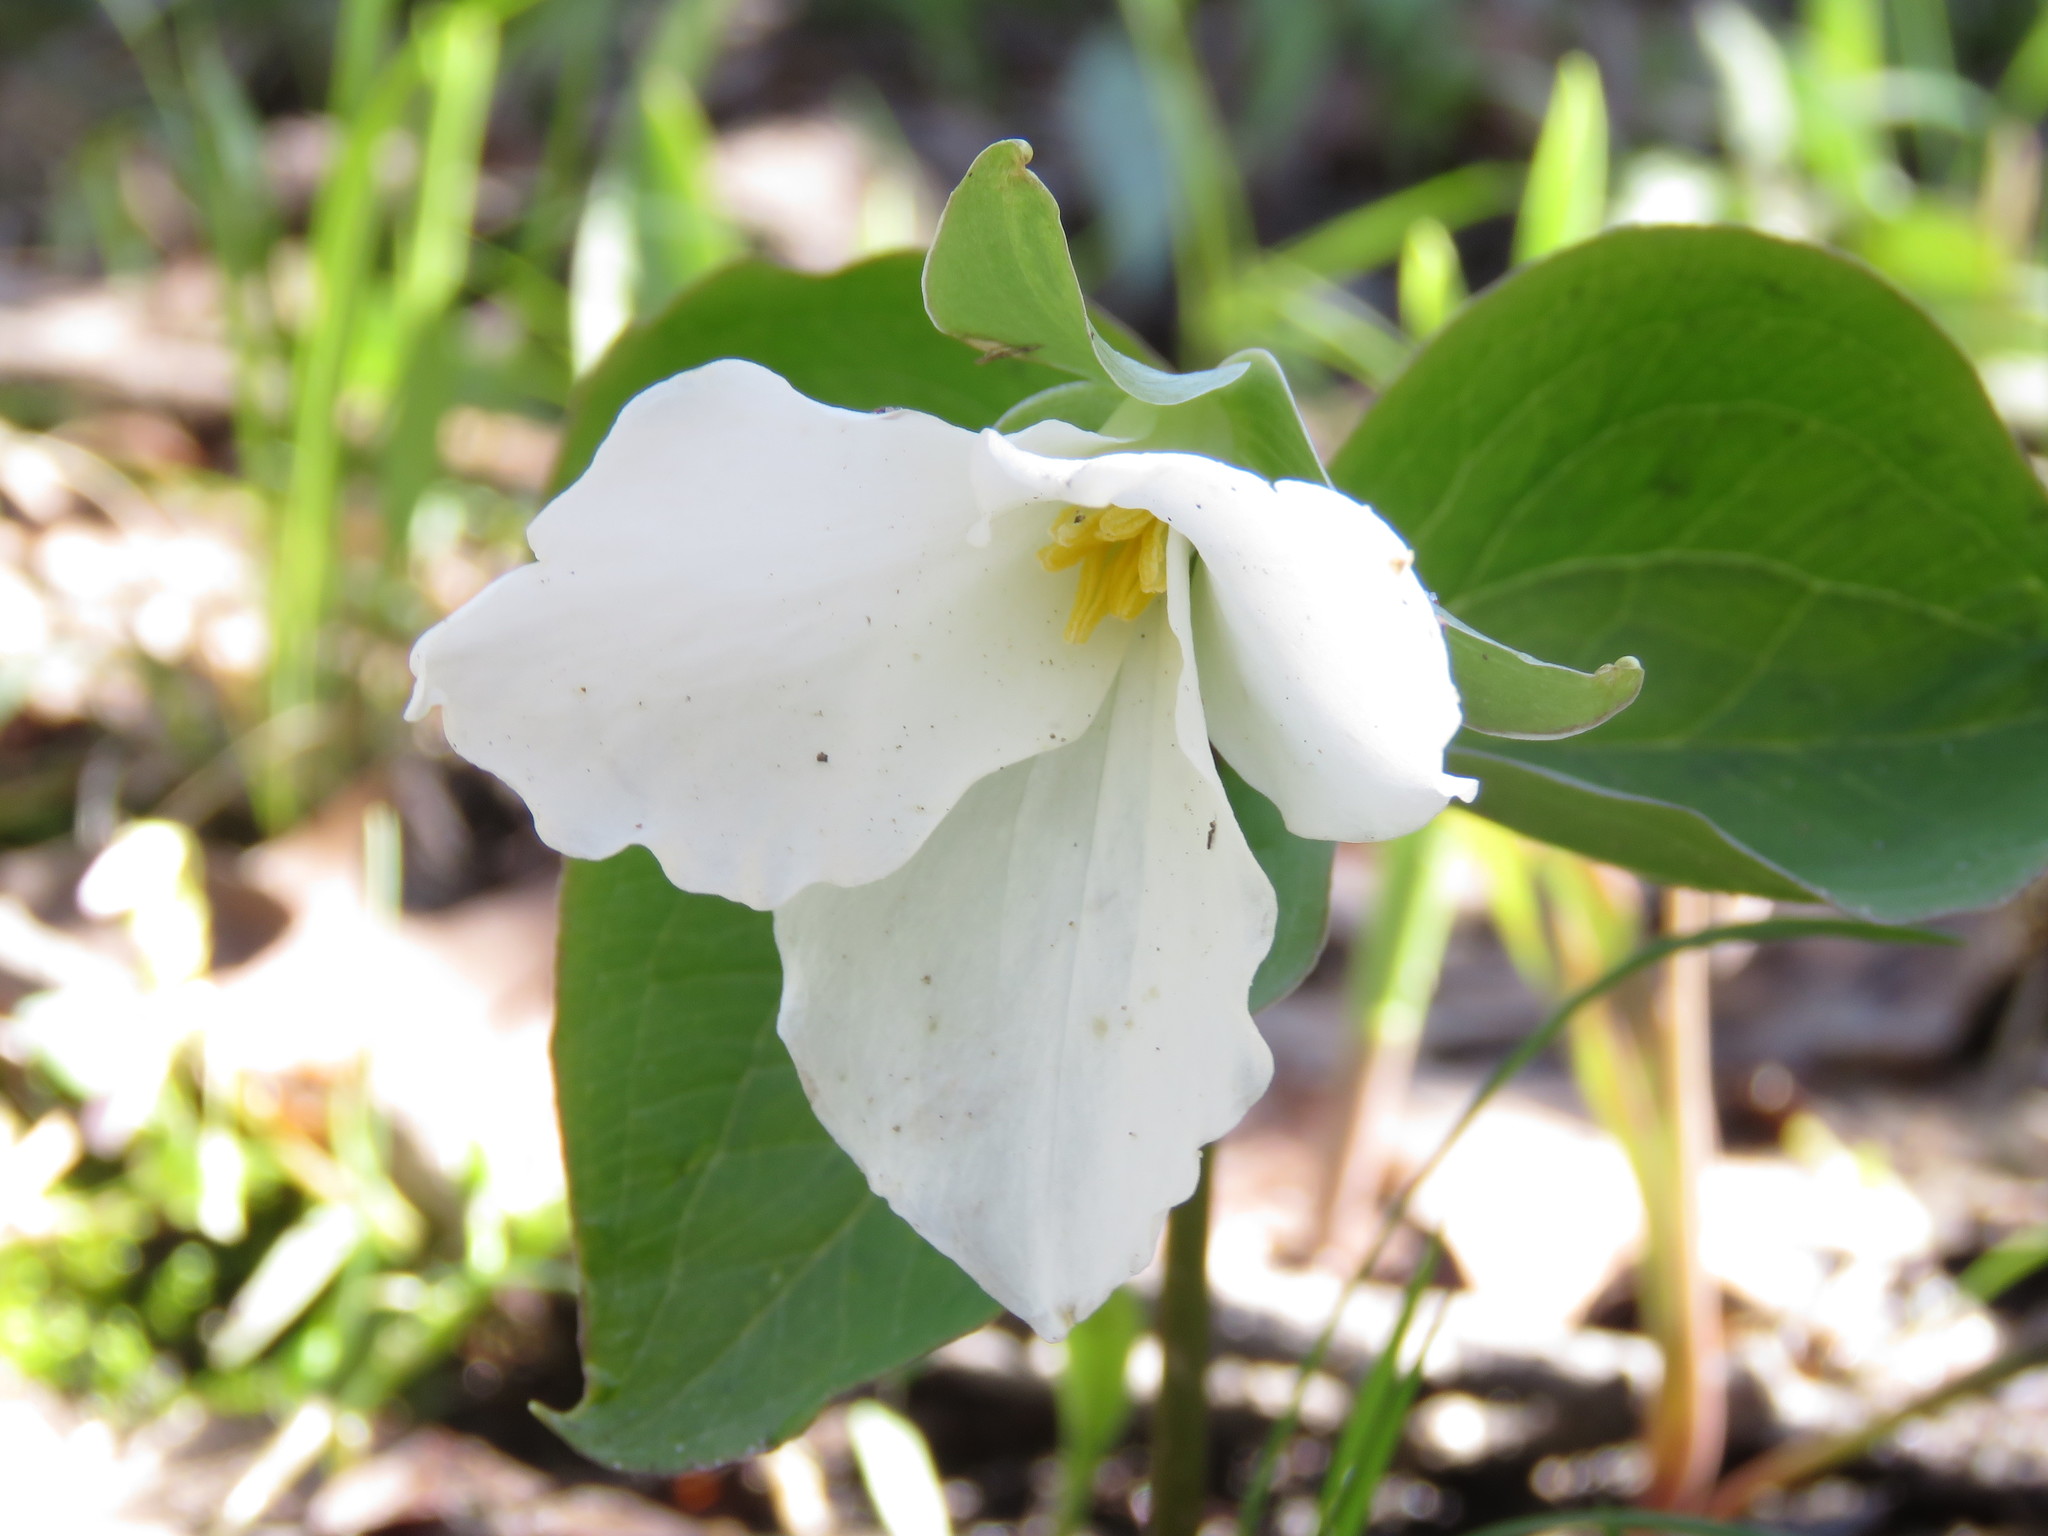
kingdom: Plantae
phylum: Tracheophyta
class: Liliopsida
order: Liliales
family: Melanthiaceae
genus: Trillium
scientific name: Trillium grandiflorum
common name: Great white trillium
